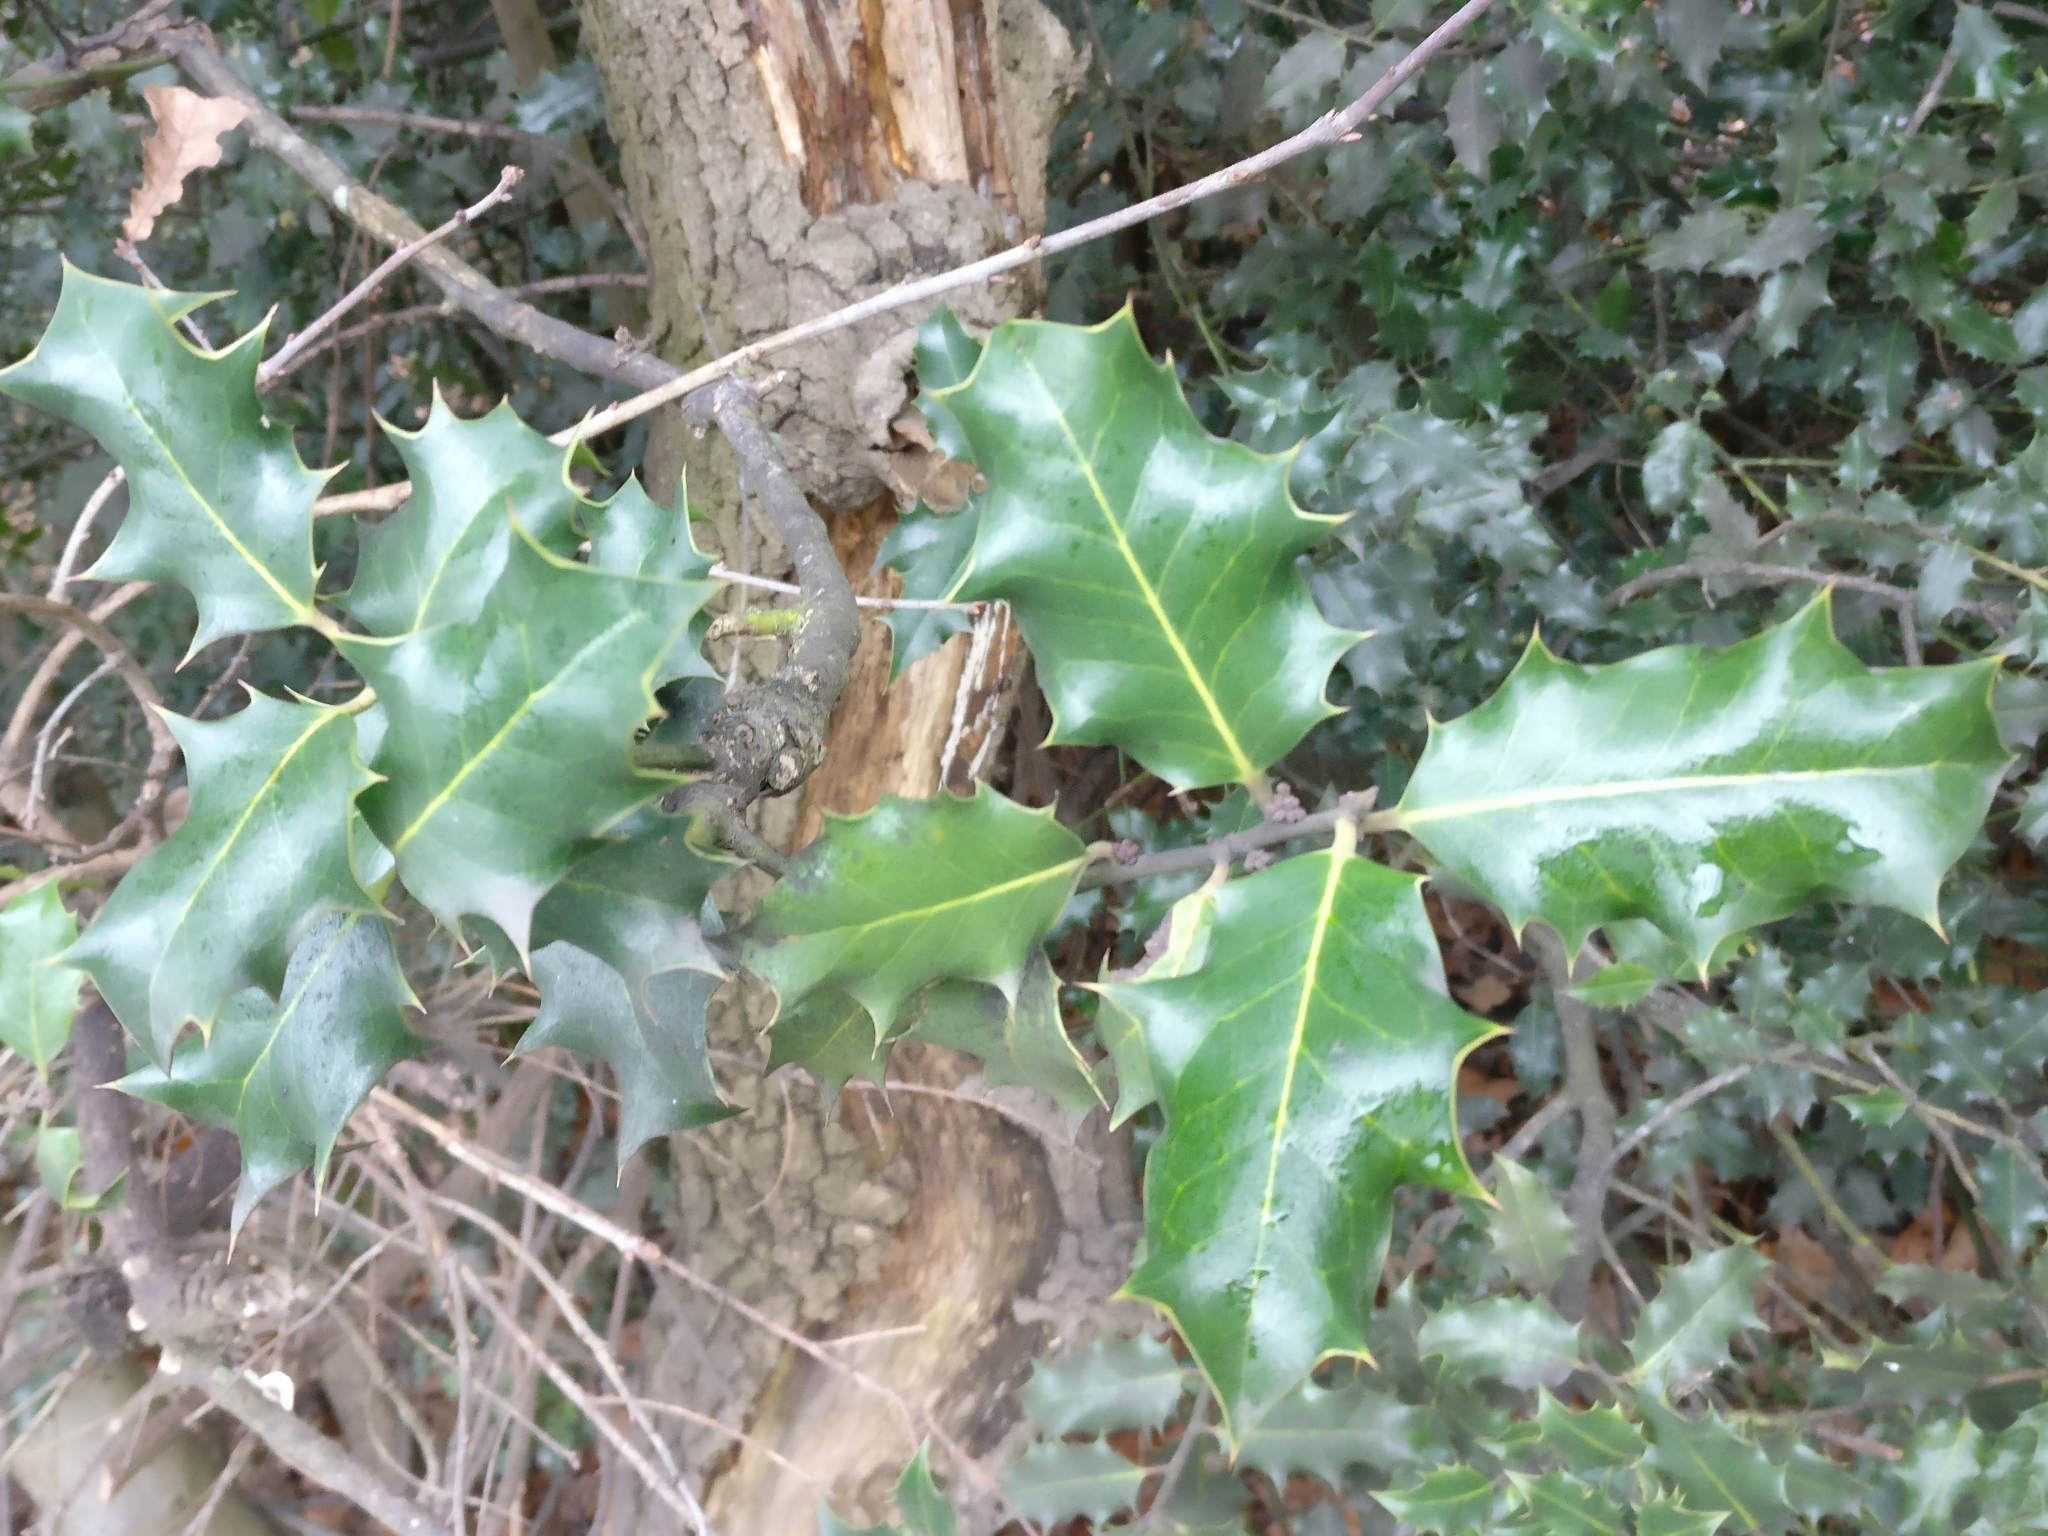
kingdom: Plantae
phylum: Tracheophyta
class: Magnoliopsida
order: Aquifoliales
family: Aquifoliaceae
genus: Ilex
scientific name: Ilex aquifolium
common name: English holly
